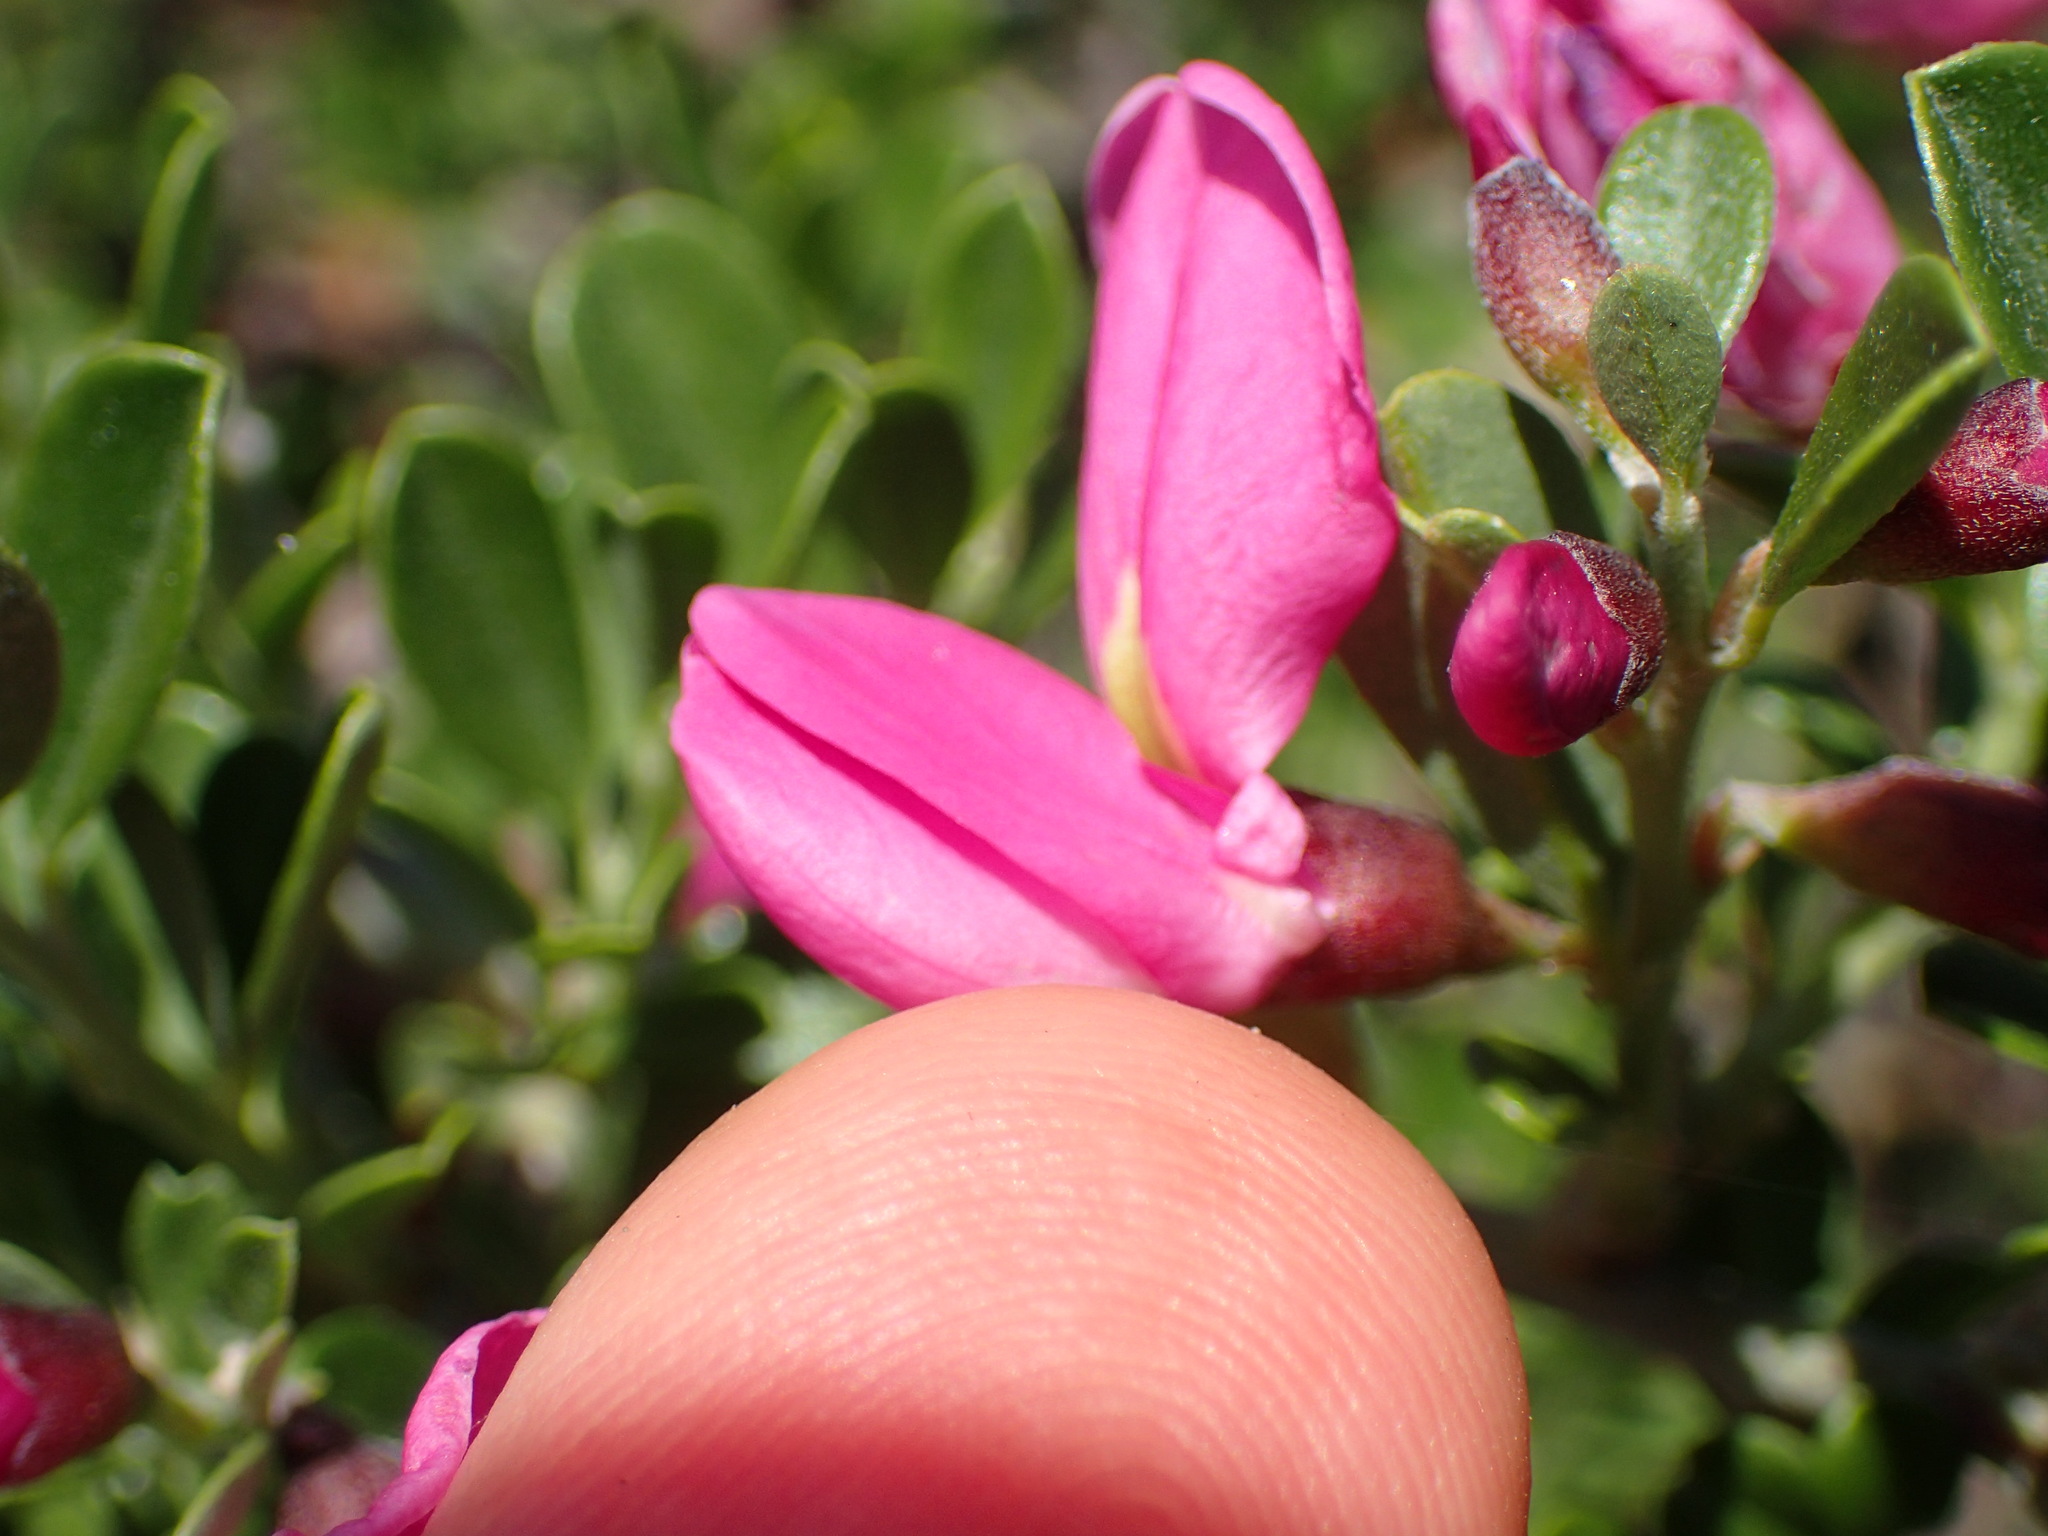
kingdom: Plantae
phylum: Tracheophyta
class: Magnoliopsida
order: Fabales
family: Fabaceae
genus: Pickeringia
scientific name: Pickeringia montana
